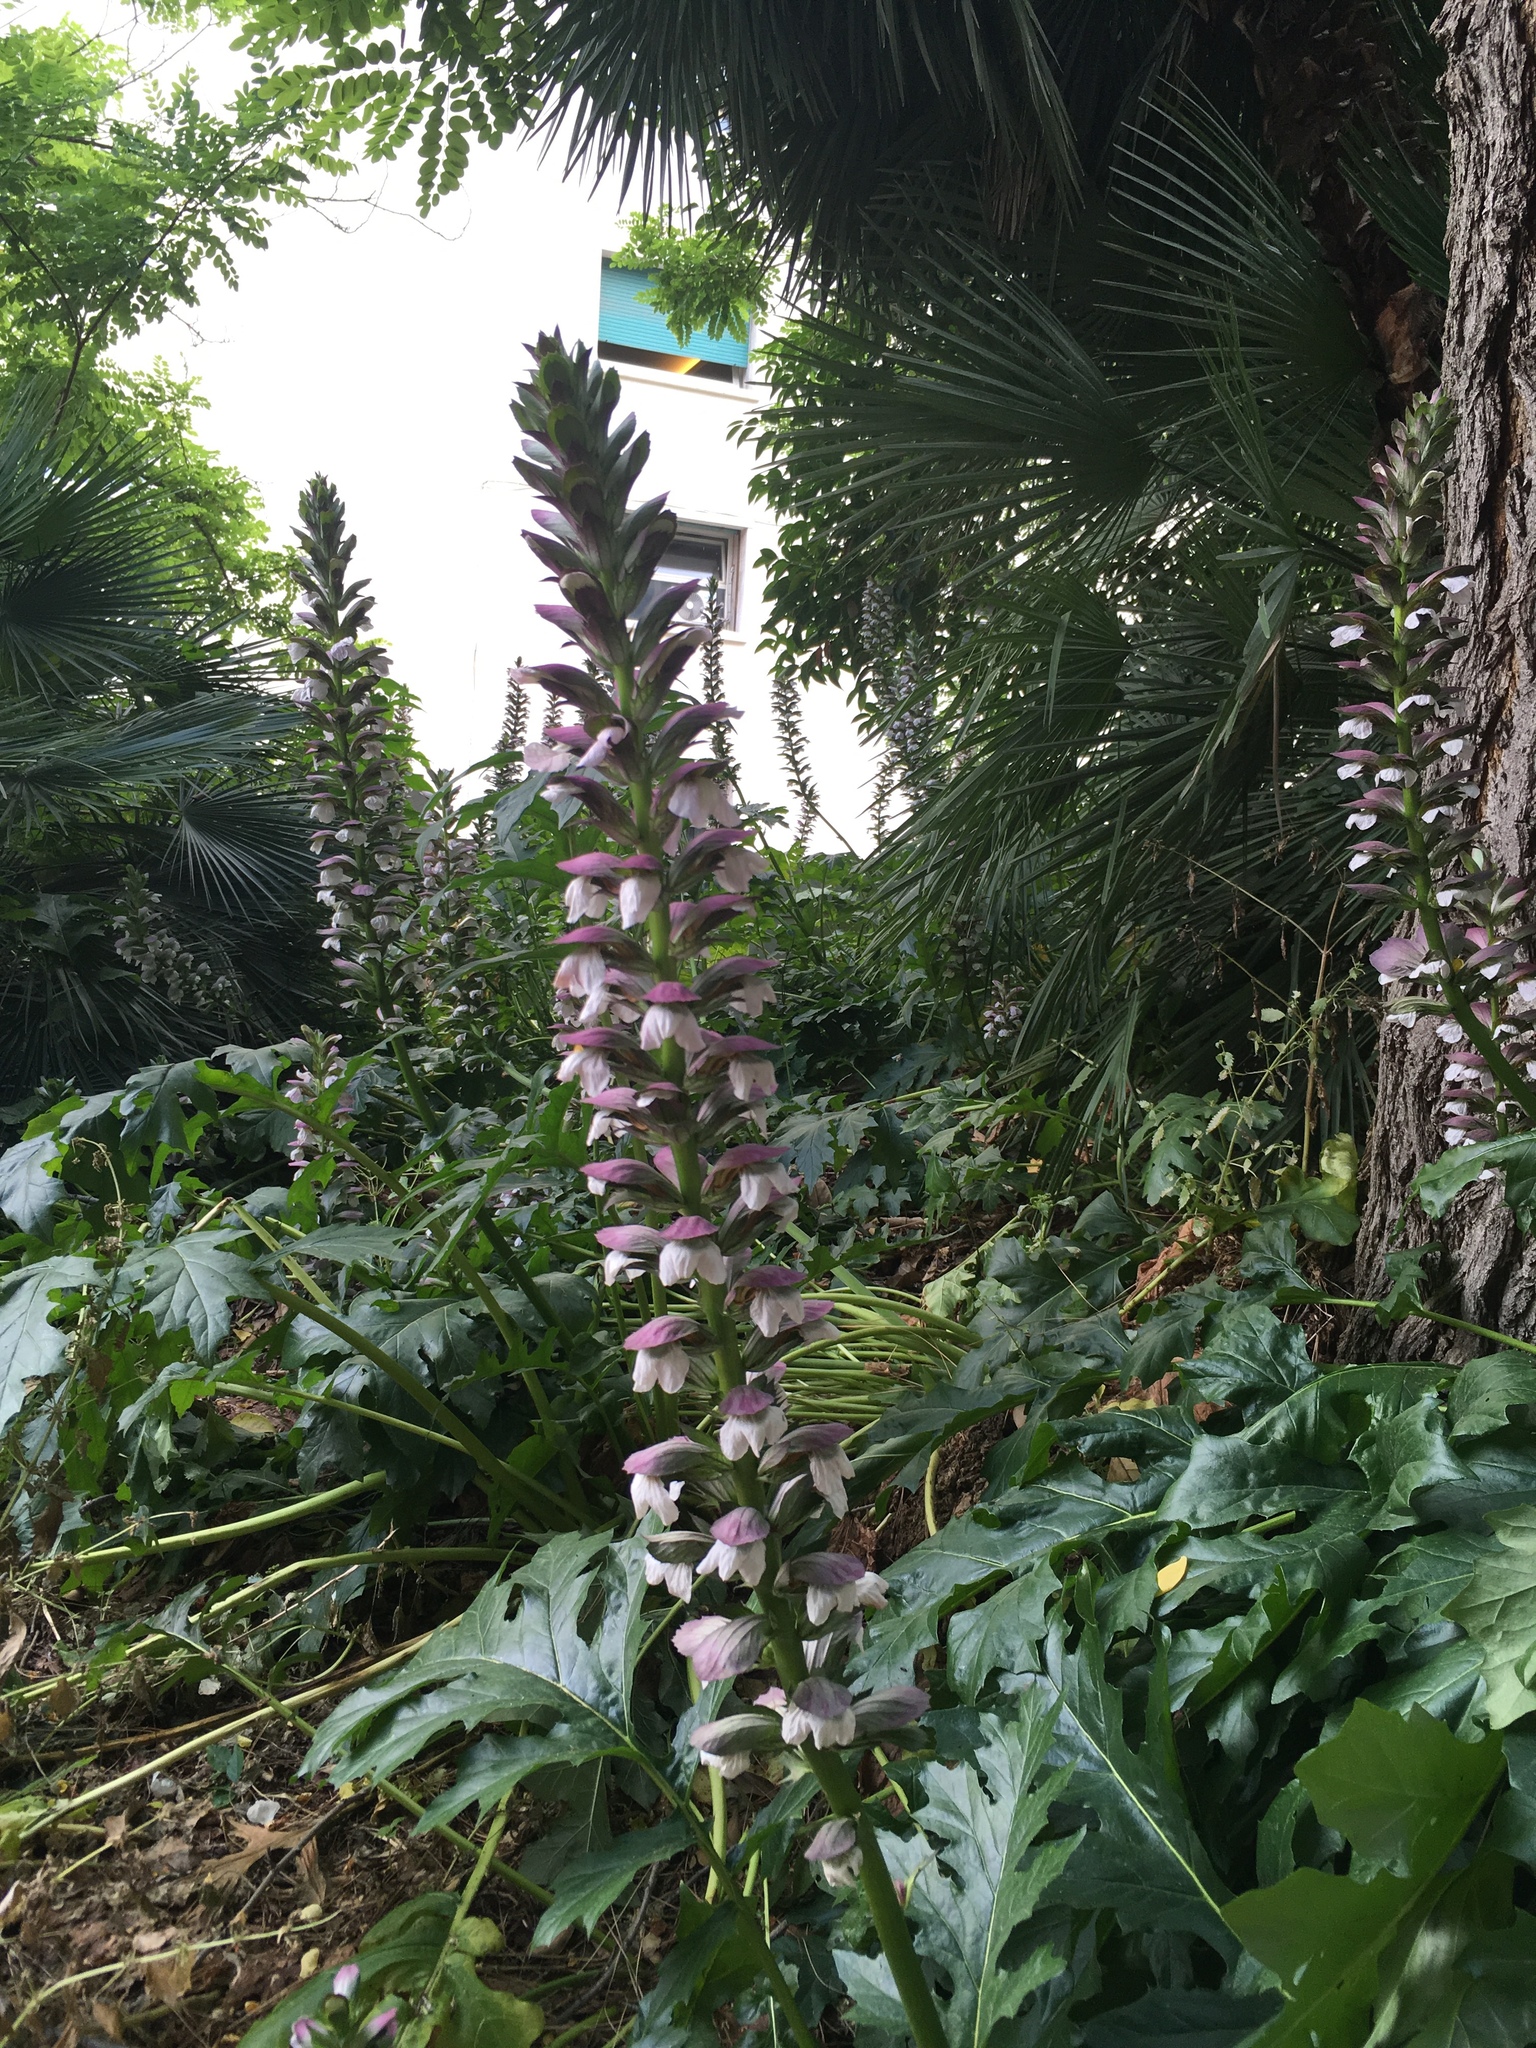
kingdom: Plantae
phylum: Tracheophyta
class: Magnoliopsida
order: Lamiales
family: Acanthaceae
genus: Acanthus
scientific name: Acanthus mollis
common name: Bear's-breech
